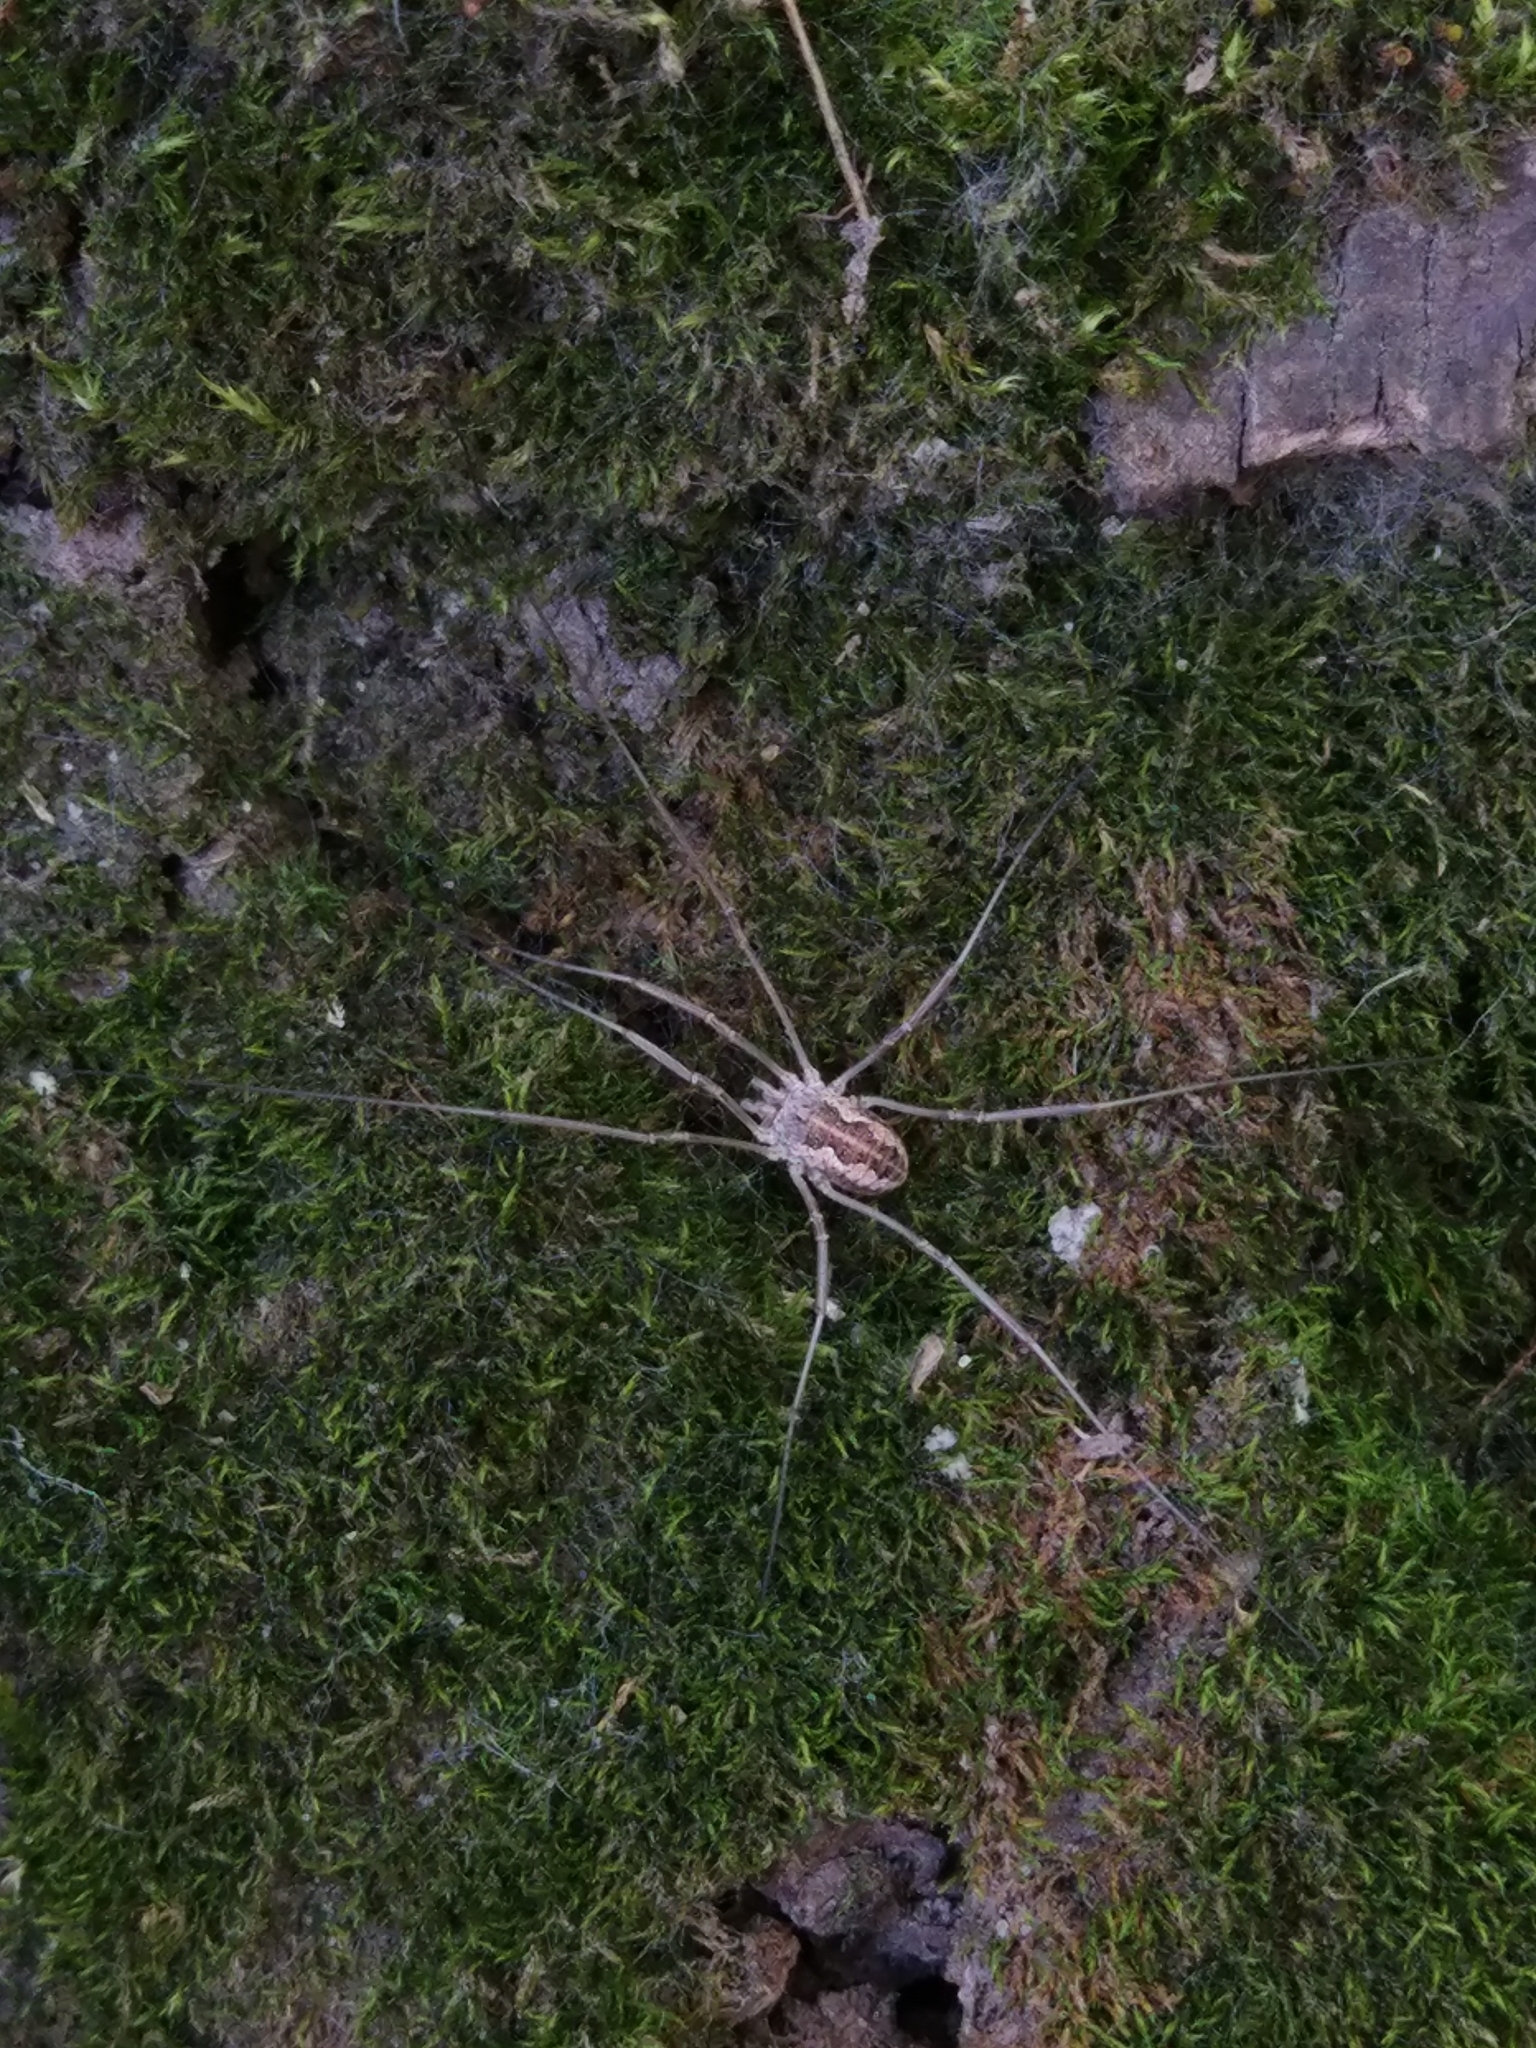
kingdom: Animalia
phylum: Arthropoda
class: Arachnida
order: Opiliones
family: Phalangiidae
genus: Phalangium
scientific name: Phalangium opilio
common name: Daddy longleg
